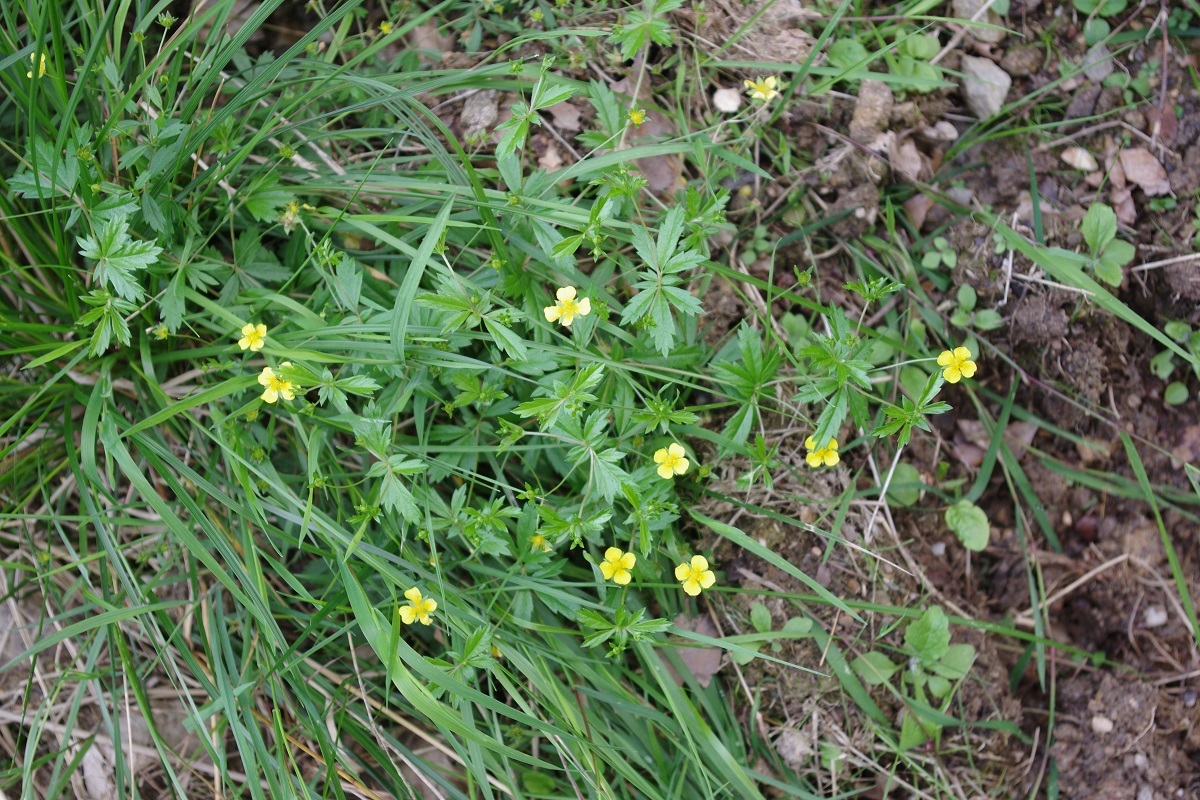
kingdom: Plantae
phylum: Tracheophyta
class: Magnoliopsida
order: Rosales
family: Rosaceae
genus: Potentilla
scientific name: Potentilla erecta
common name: Tormentil
